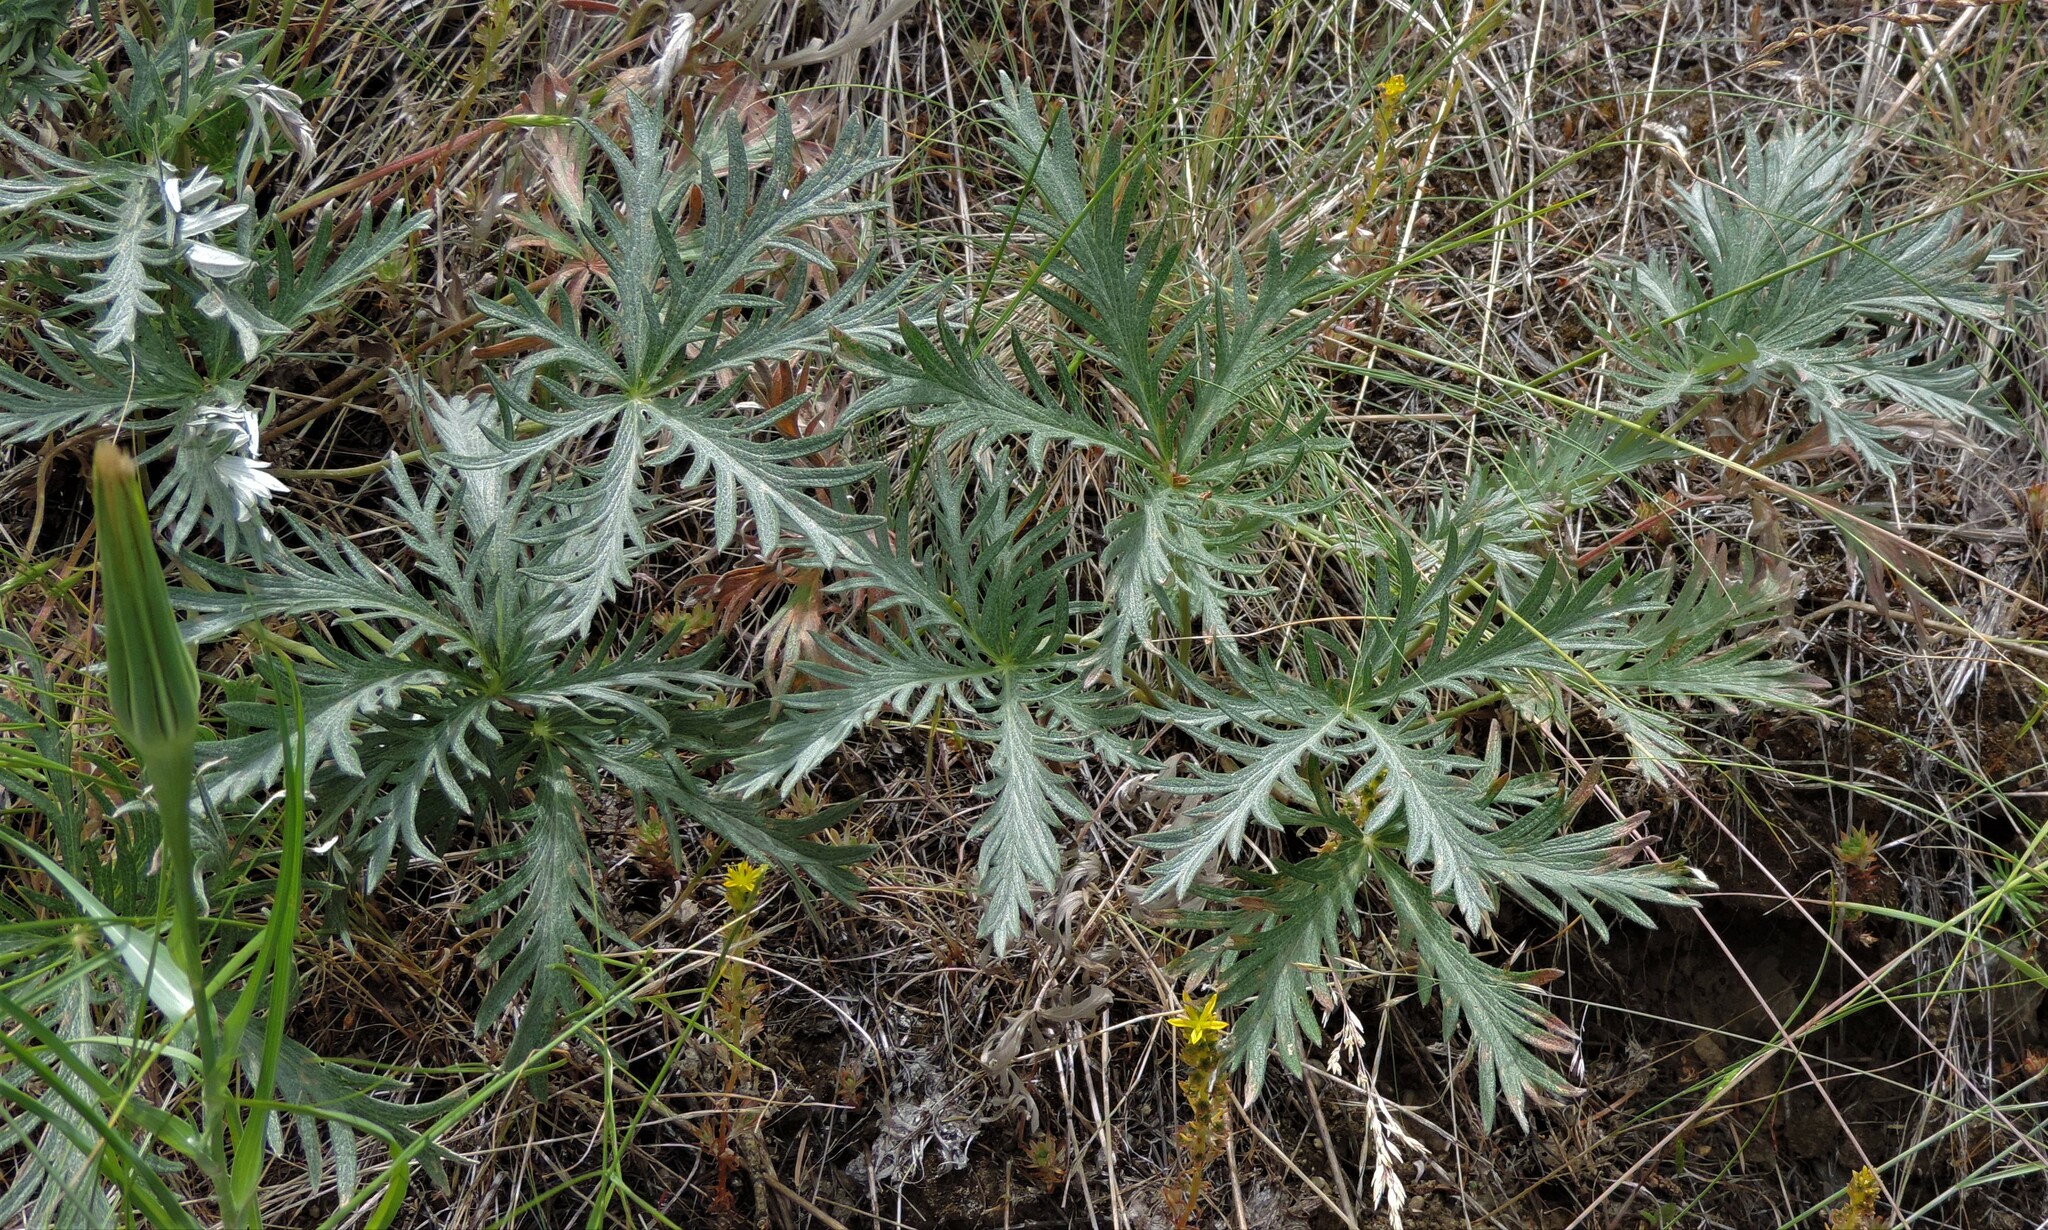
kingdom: Plantae
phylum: Tracheophyta
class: Magnoliopsida
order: Rosales
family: Rosaceae
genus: Potentilla
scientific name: Potentilla gracilis
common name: Graceful cinquefoil
